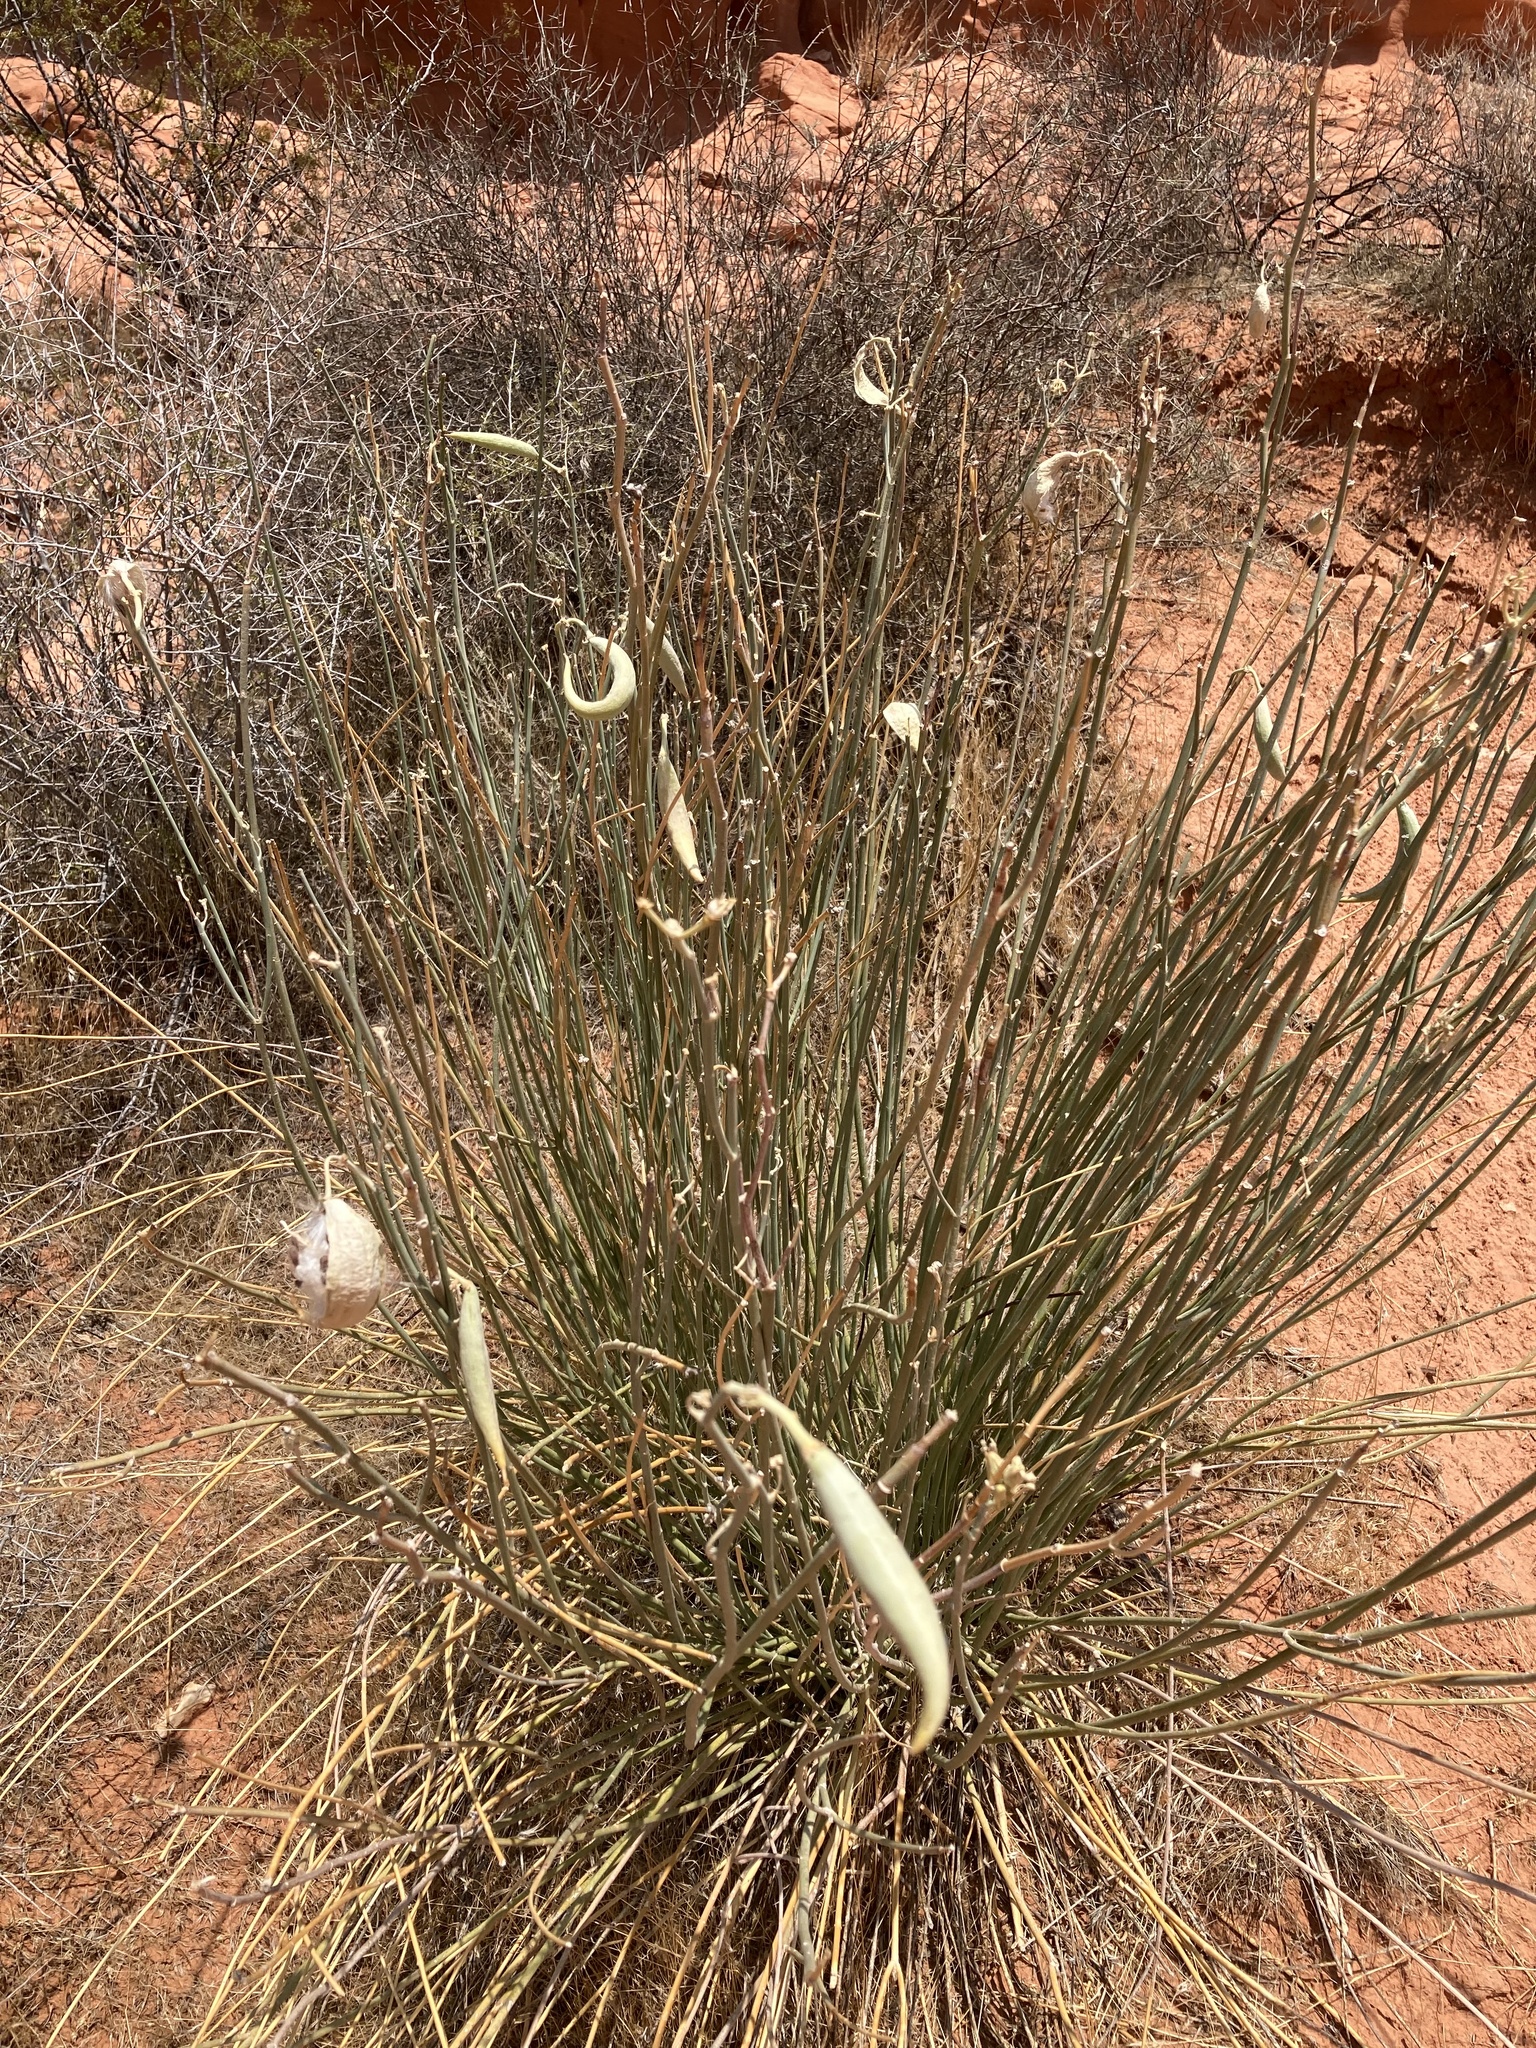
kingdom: Plantae
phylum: Tracheophyta
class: Magnoliopsida
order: Gentianales
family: Apocynaceae
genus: Asclepias
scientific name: Asclepias subulata
